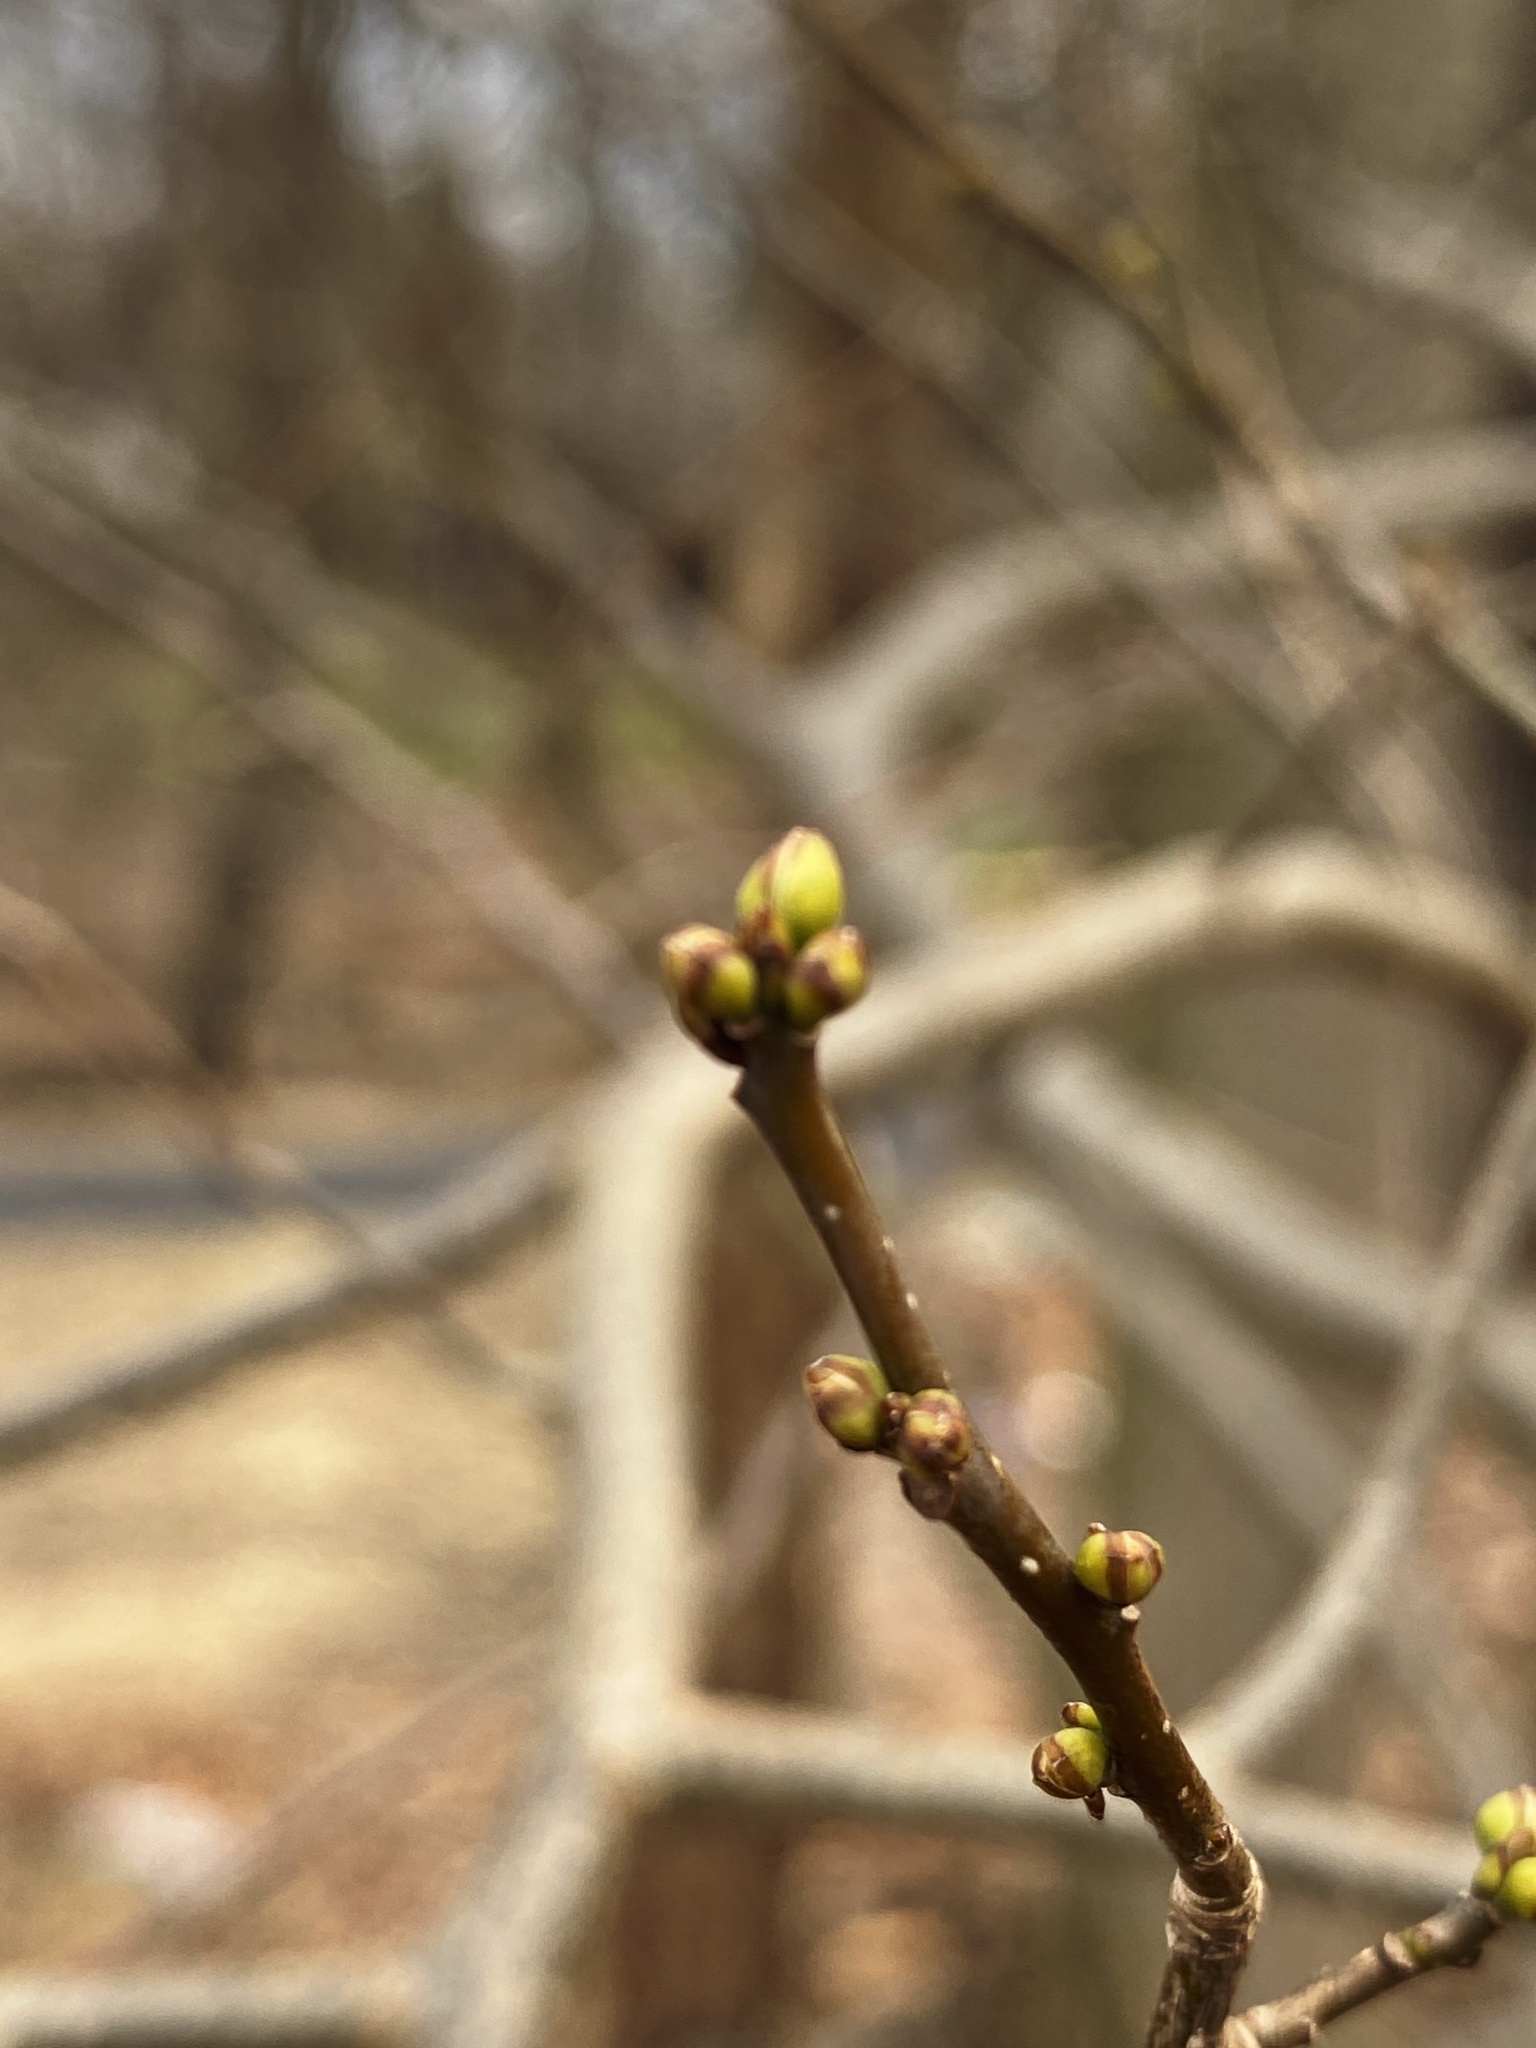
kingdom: Plantae
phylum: Tracheophyta
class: Magnoliopsida
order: Laurales
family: Lauraceae
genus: Lindera
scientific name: Lindera benzoin
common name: Spicebush
